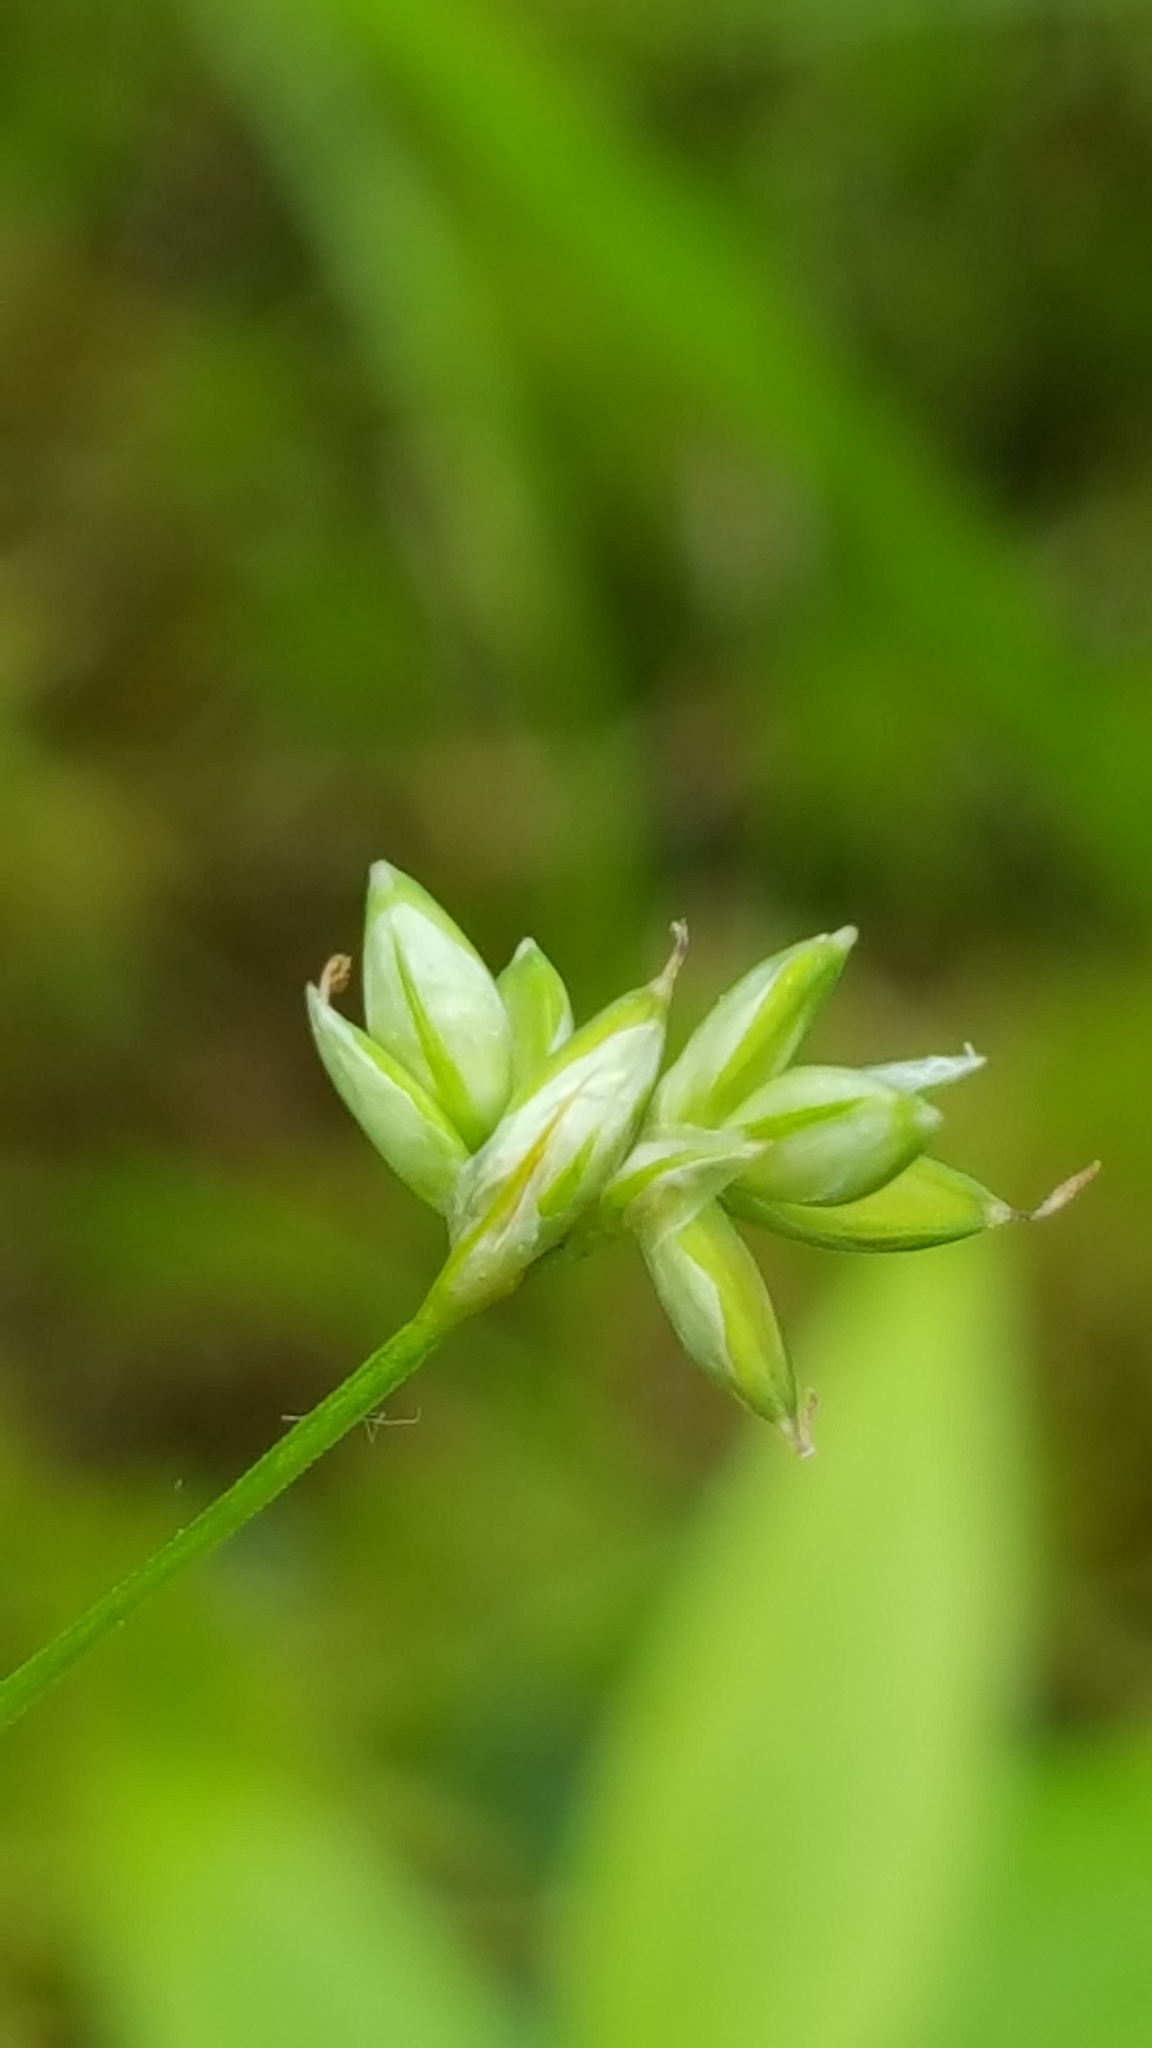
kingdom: Plantae
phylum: Tracheophyta
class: Liliopsida
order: Poales
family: Cyperaceae
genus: Carex
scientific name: Carex tenuiflora
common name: Sparse-flowered sedge
